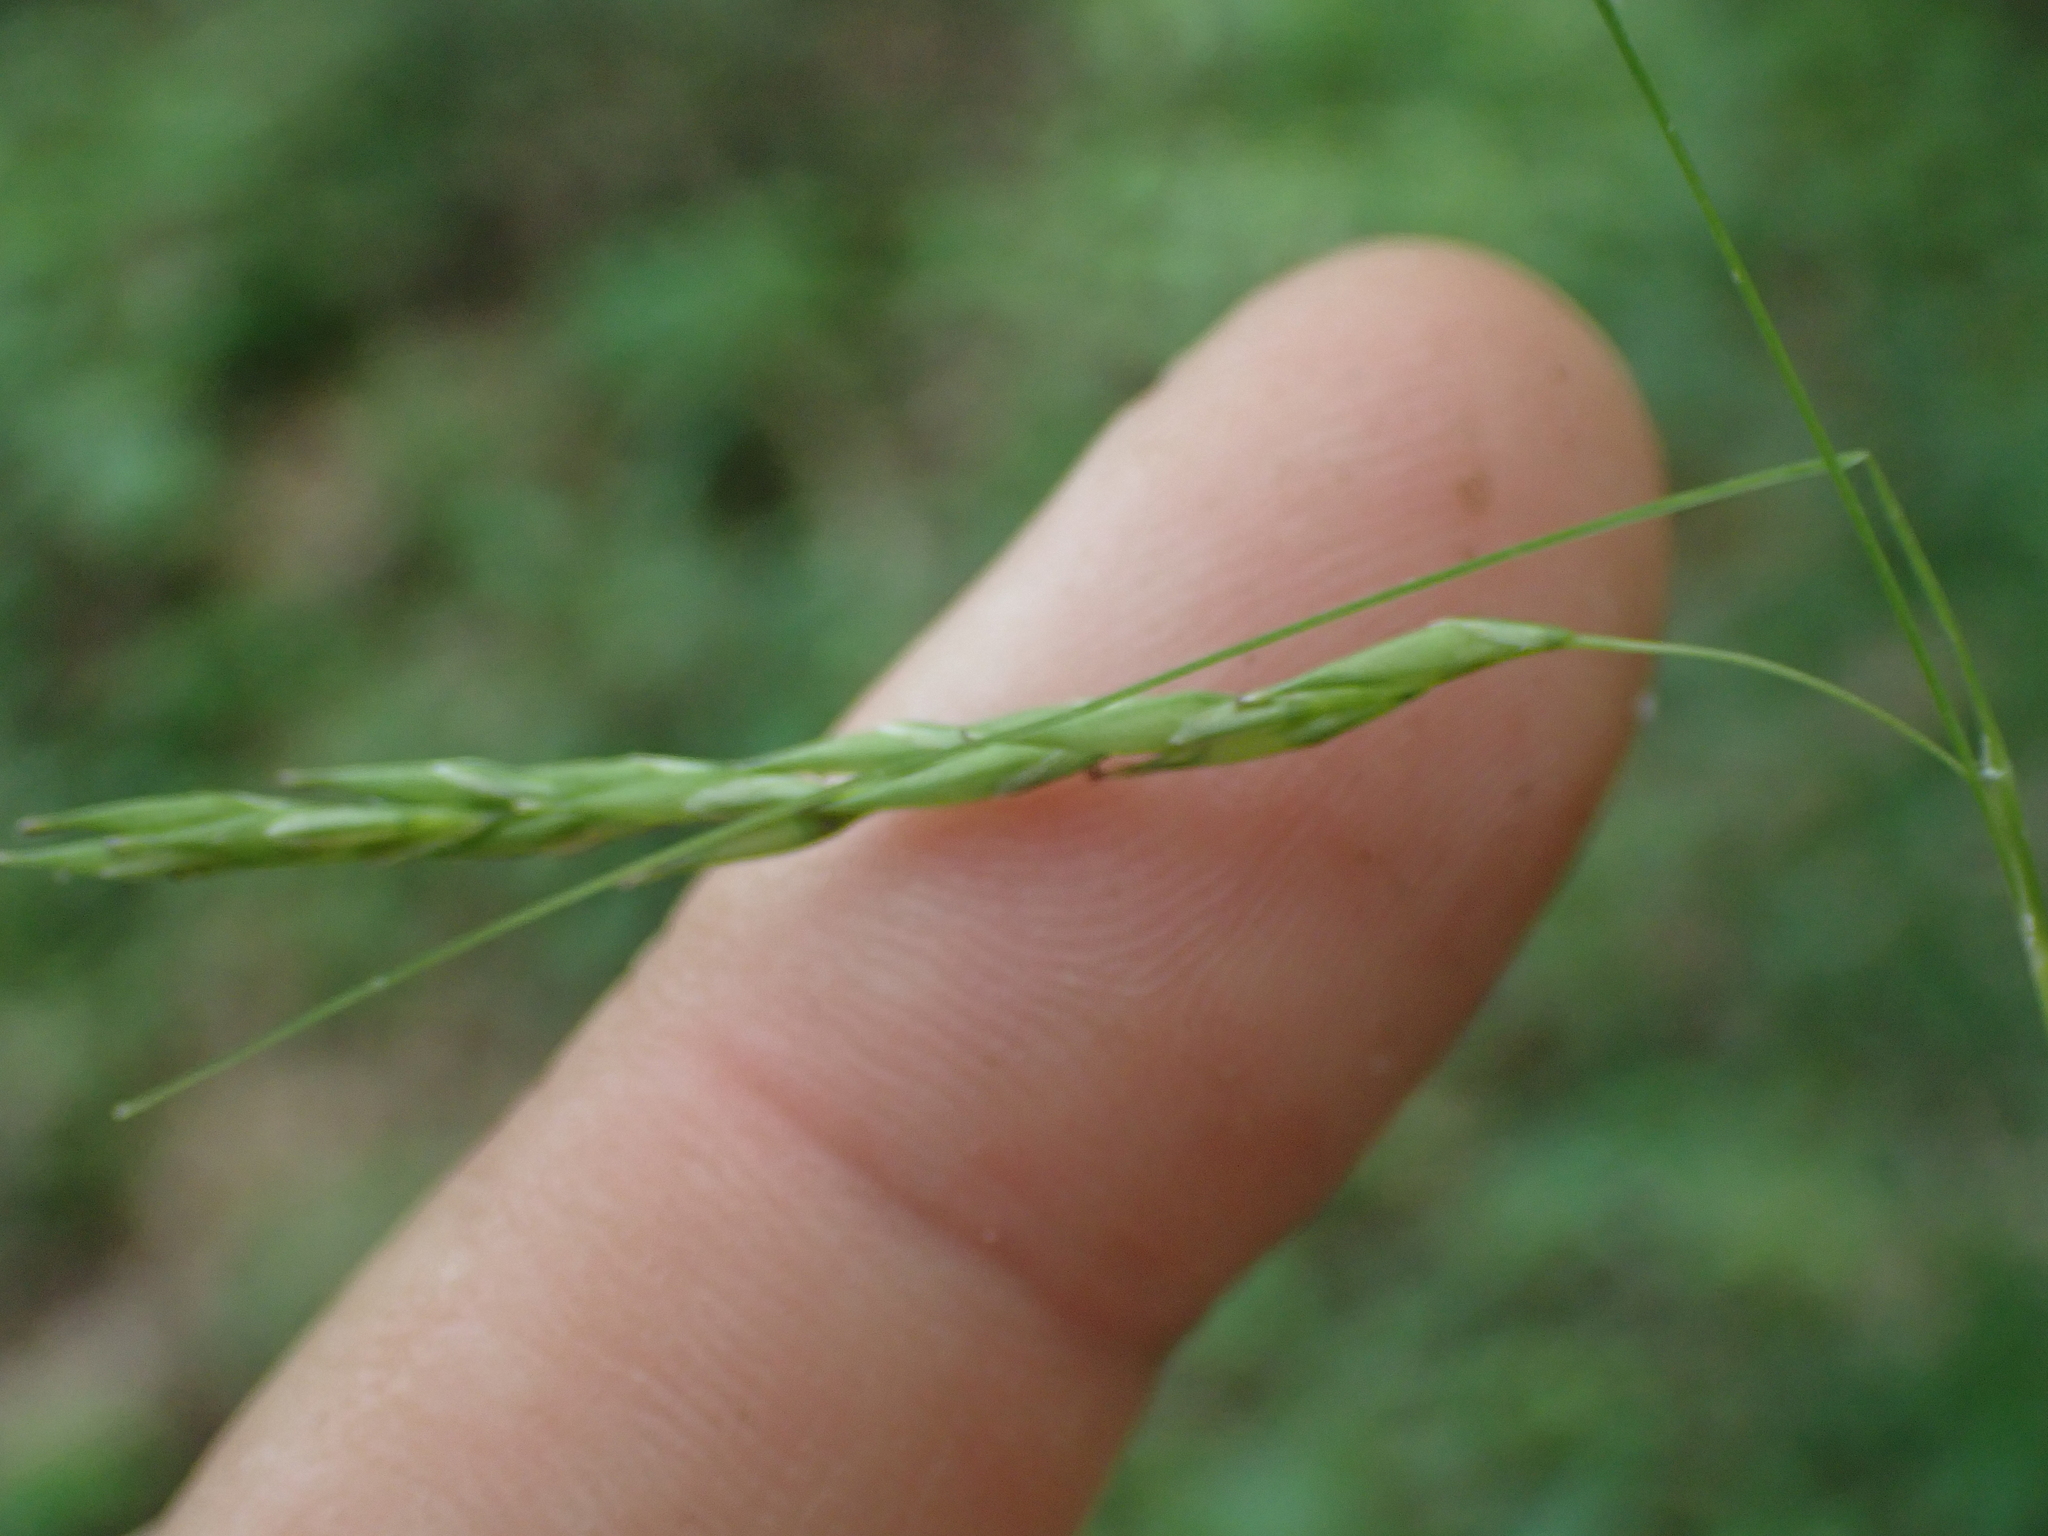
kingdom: Plantae
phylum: Tracheophyta
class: Liliopsida
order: Poales
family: Cyperaceae
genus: Carex
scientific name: Carex debilis
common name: White-edge sedge
